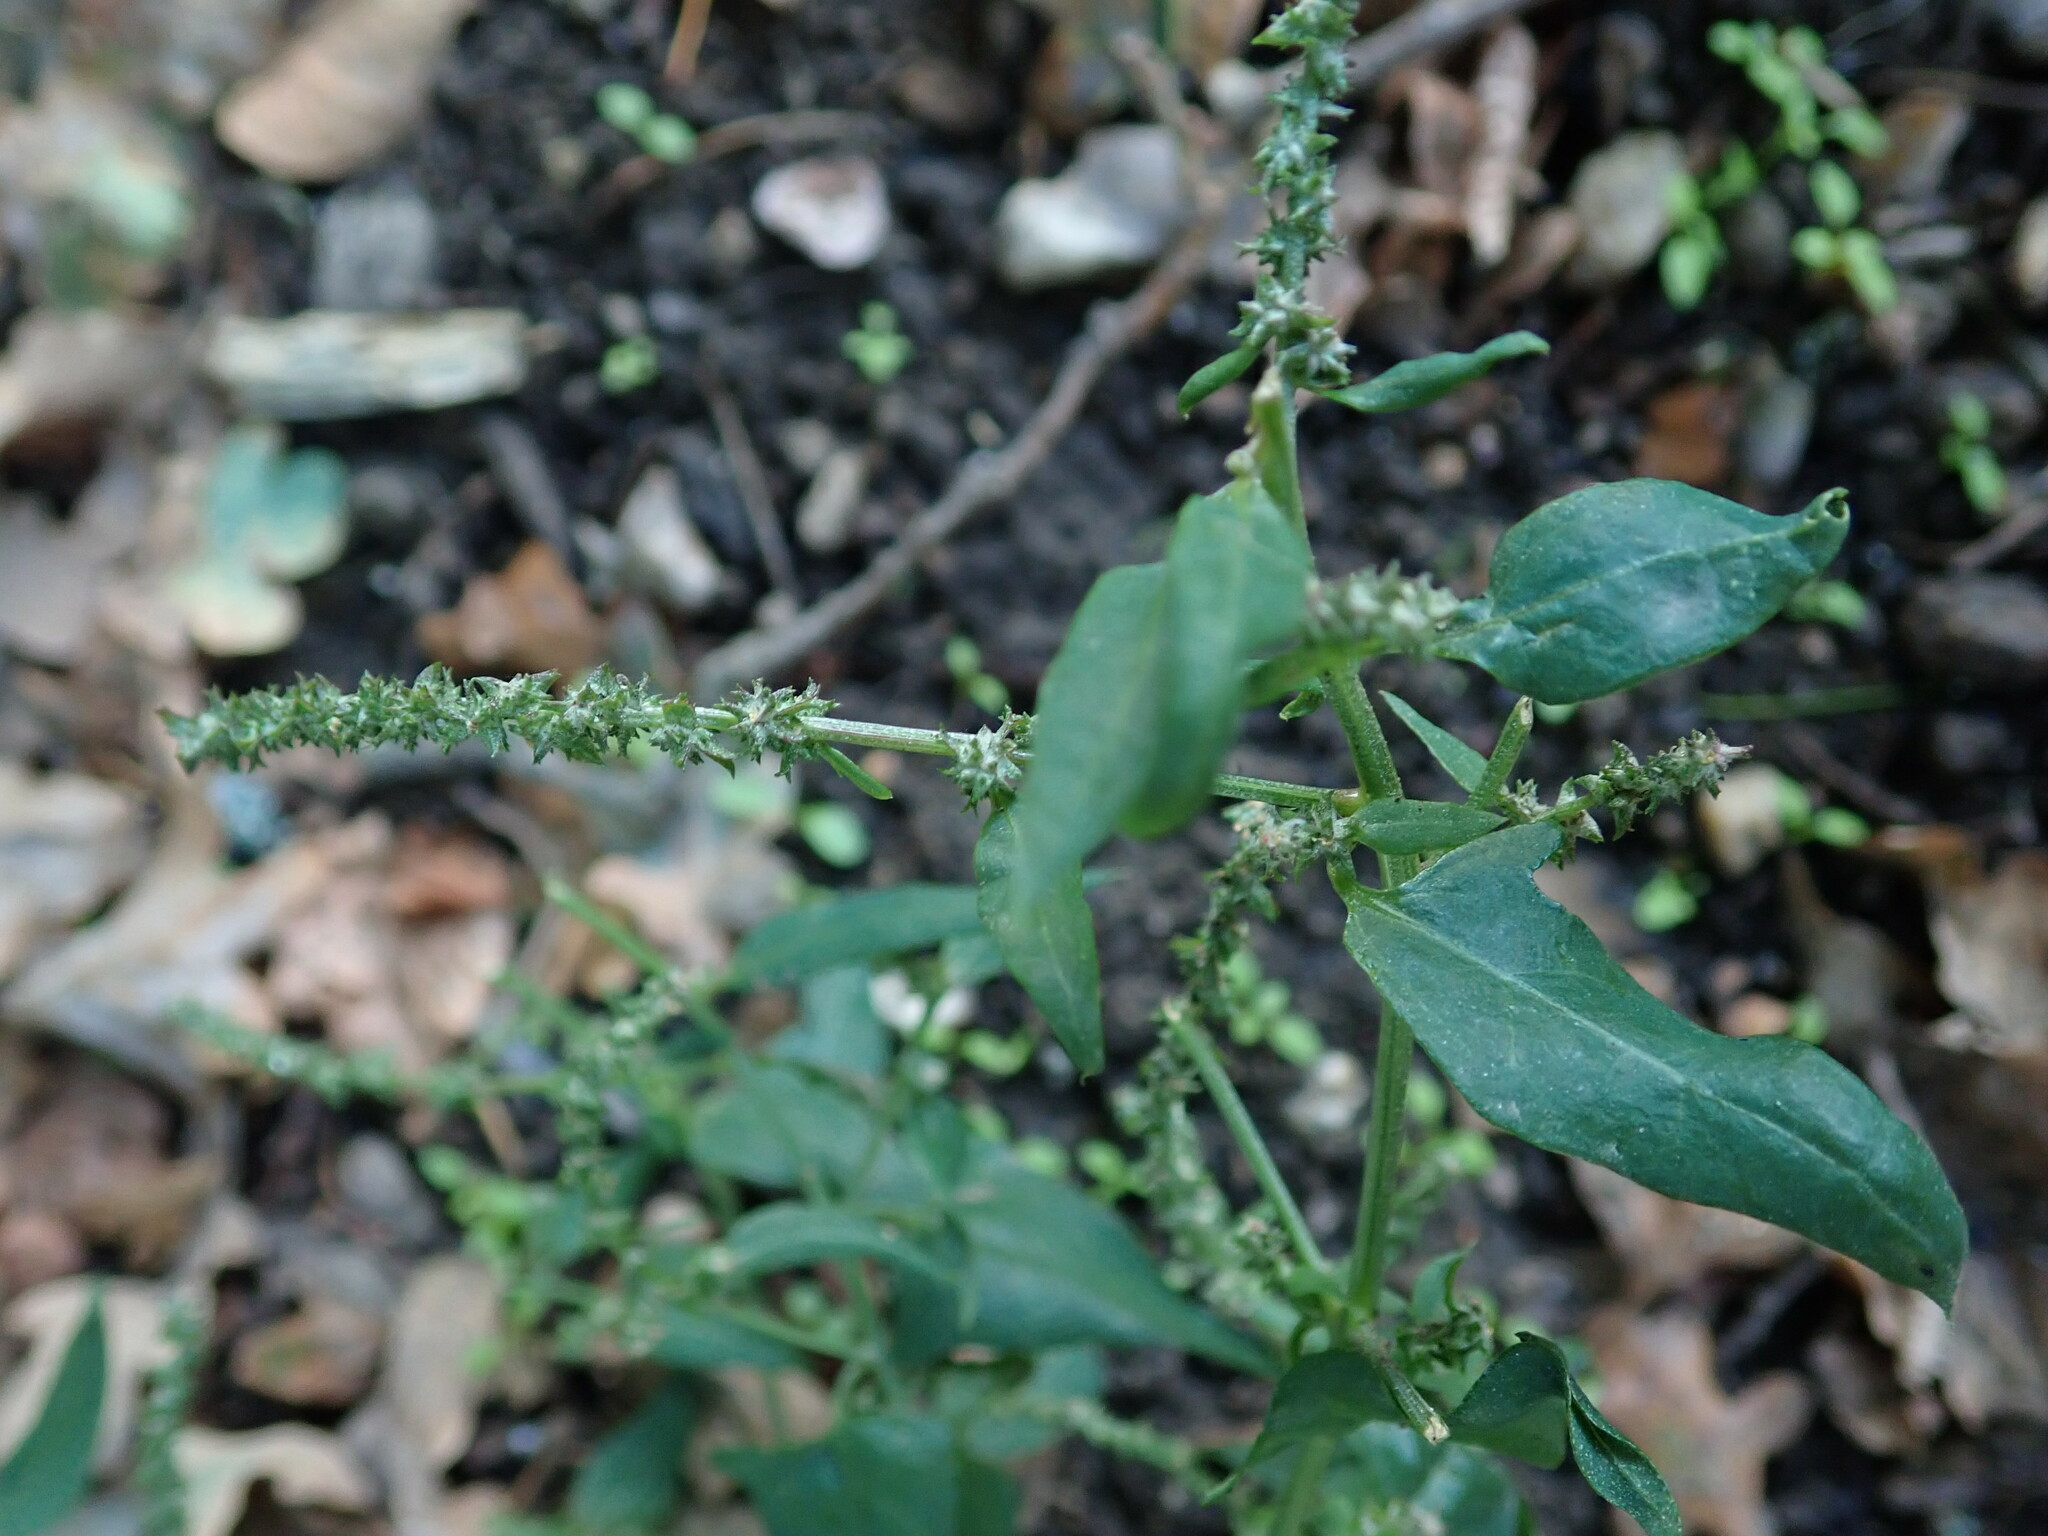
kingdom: Plantae
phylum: Tracheophyta
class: Magnoliopsida
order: Caryophyllales
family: Amaranthaceae
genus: Atriplex
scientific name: Atriplex prostrata
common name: Spear-leaved orache
